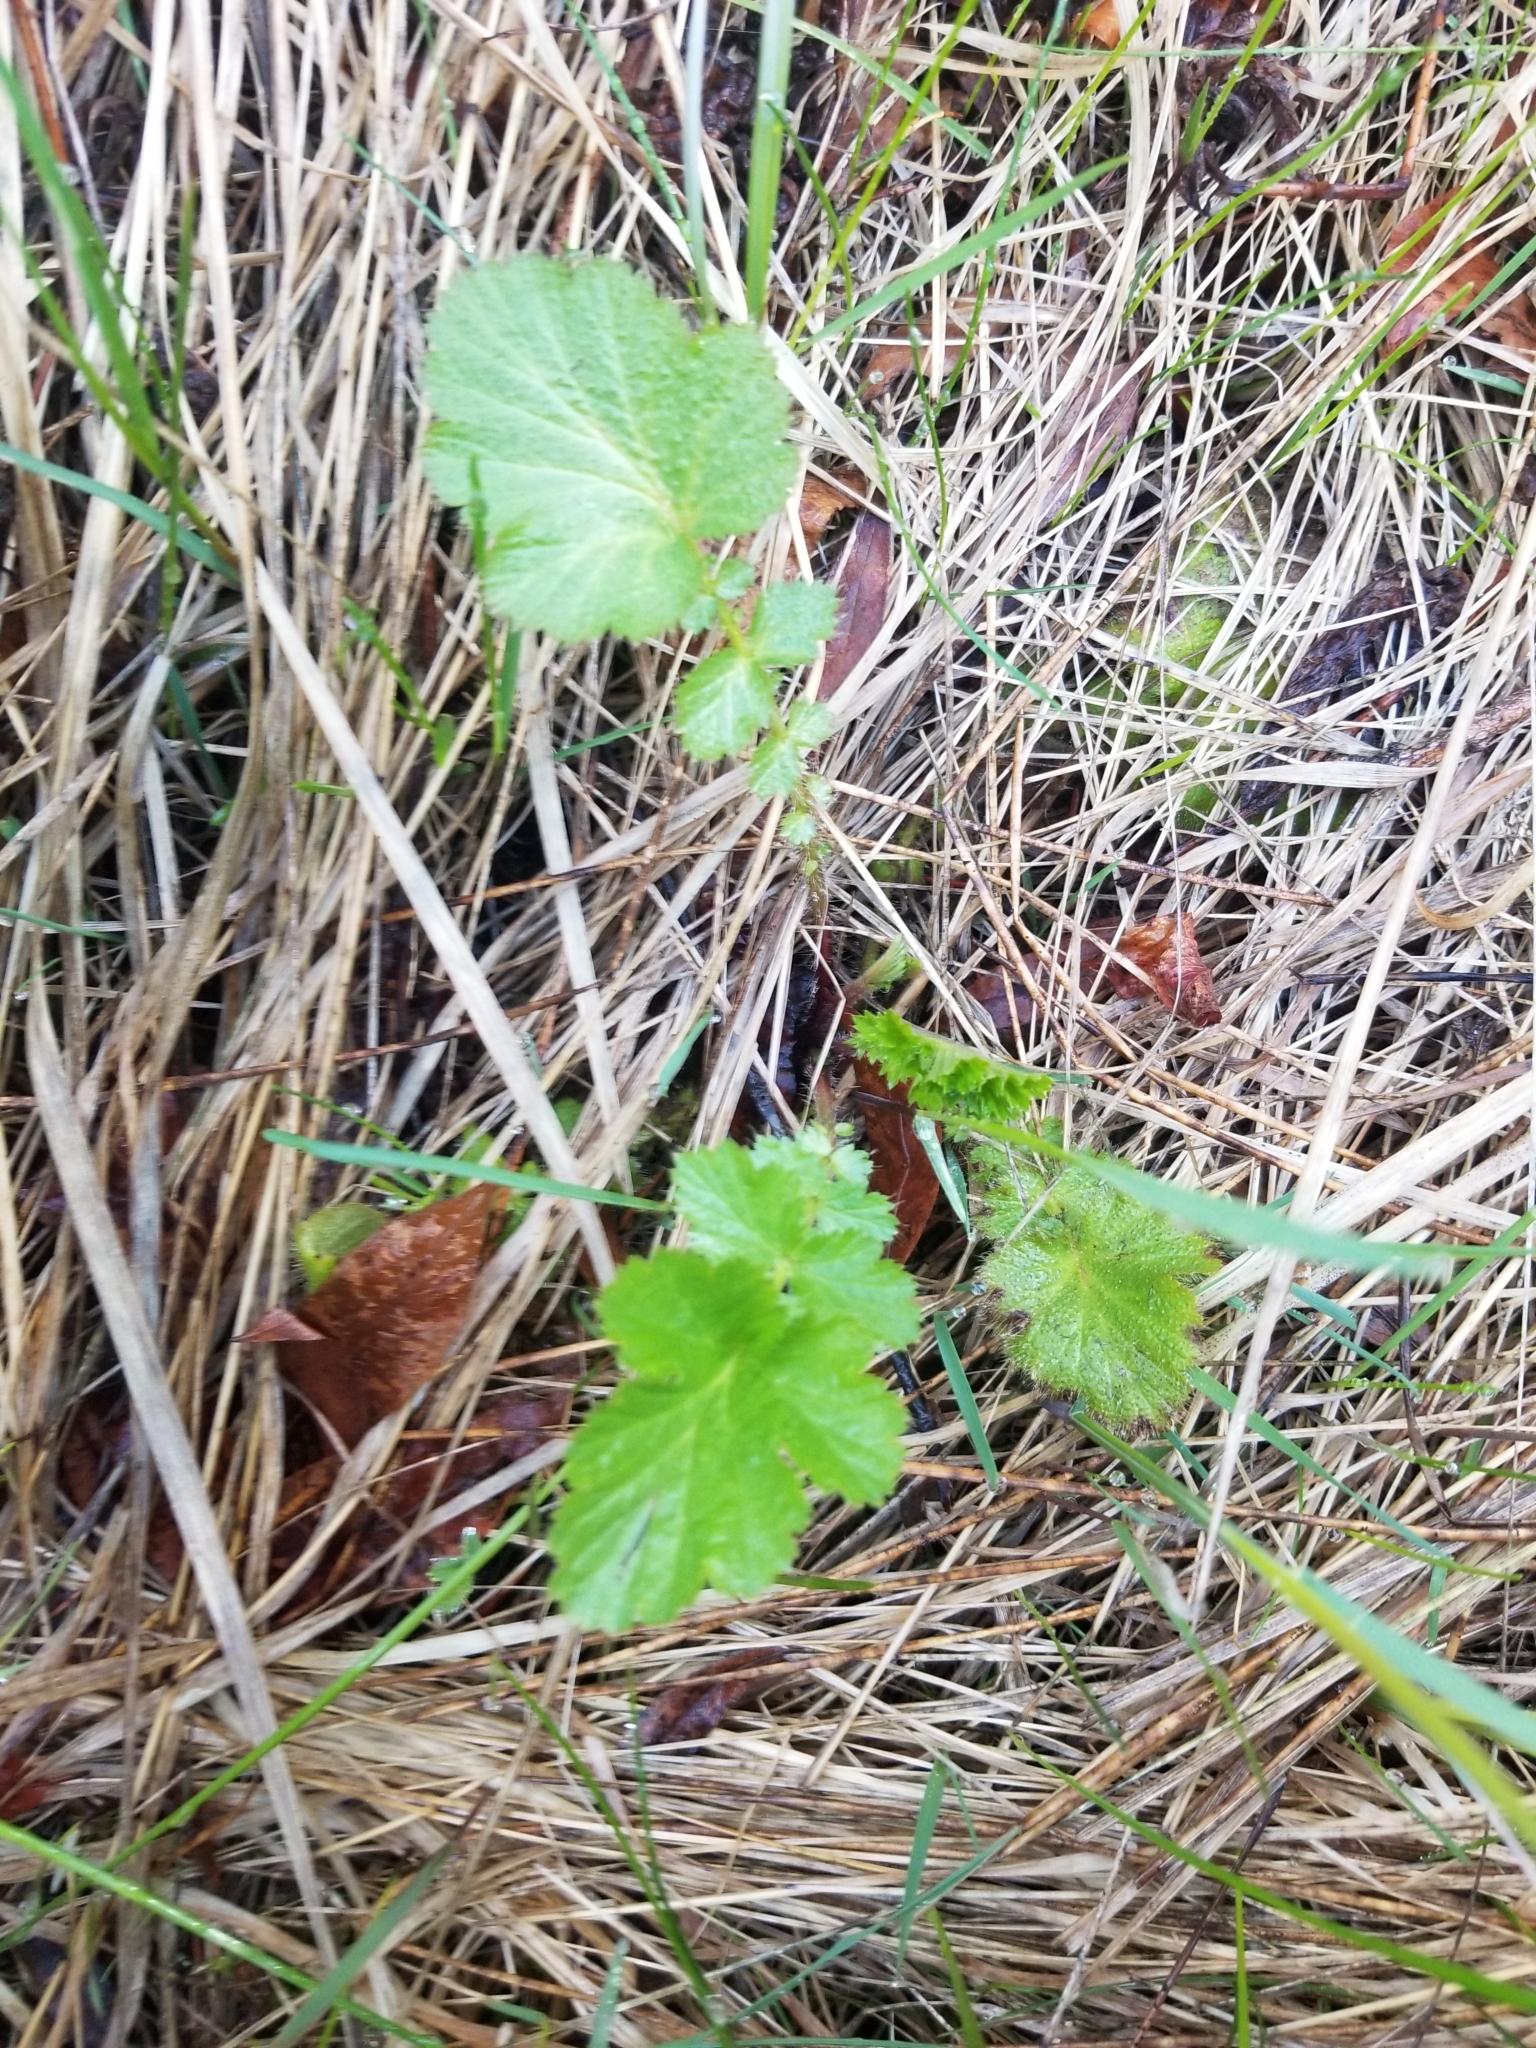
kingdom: Plantae
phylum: Tracheophyta
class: Magnoliopsida
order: Rosales
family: Rosaceae
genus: Geum
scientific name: Geum macrophyllum
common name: Large-leaved avens
